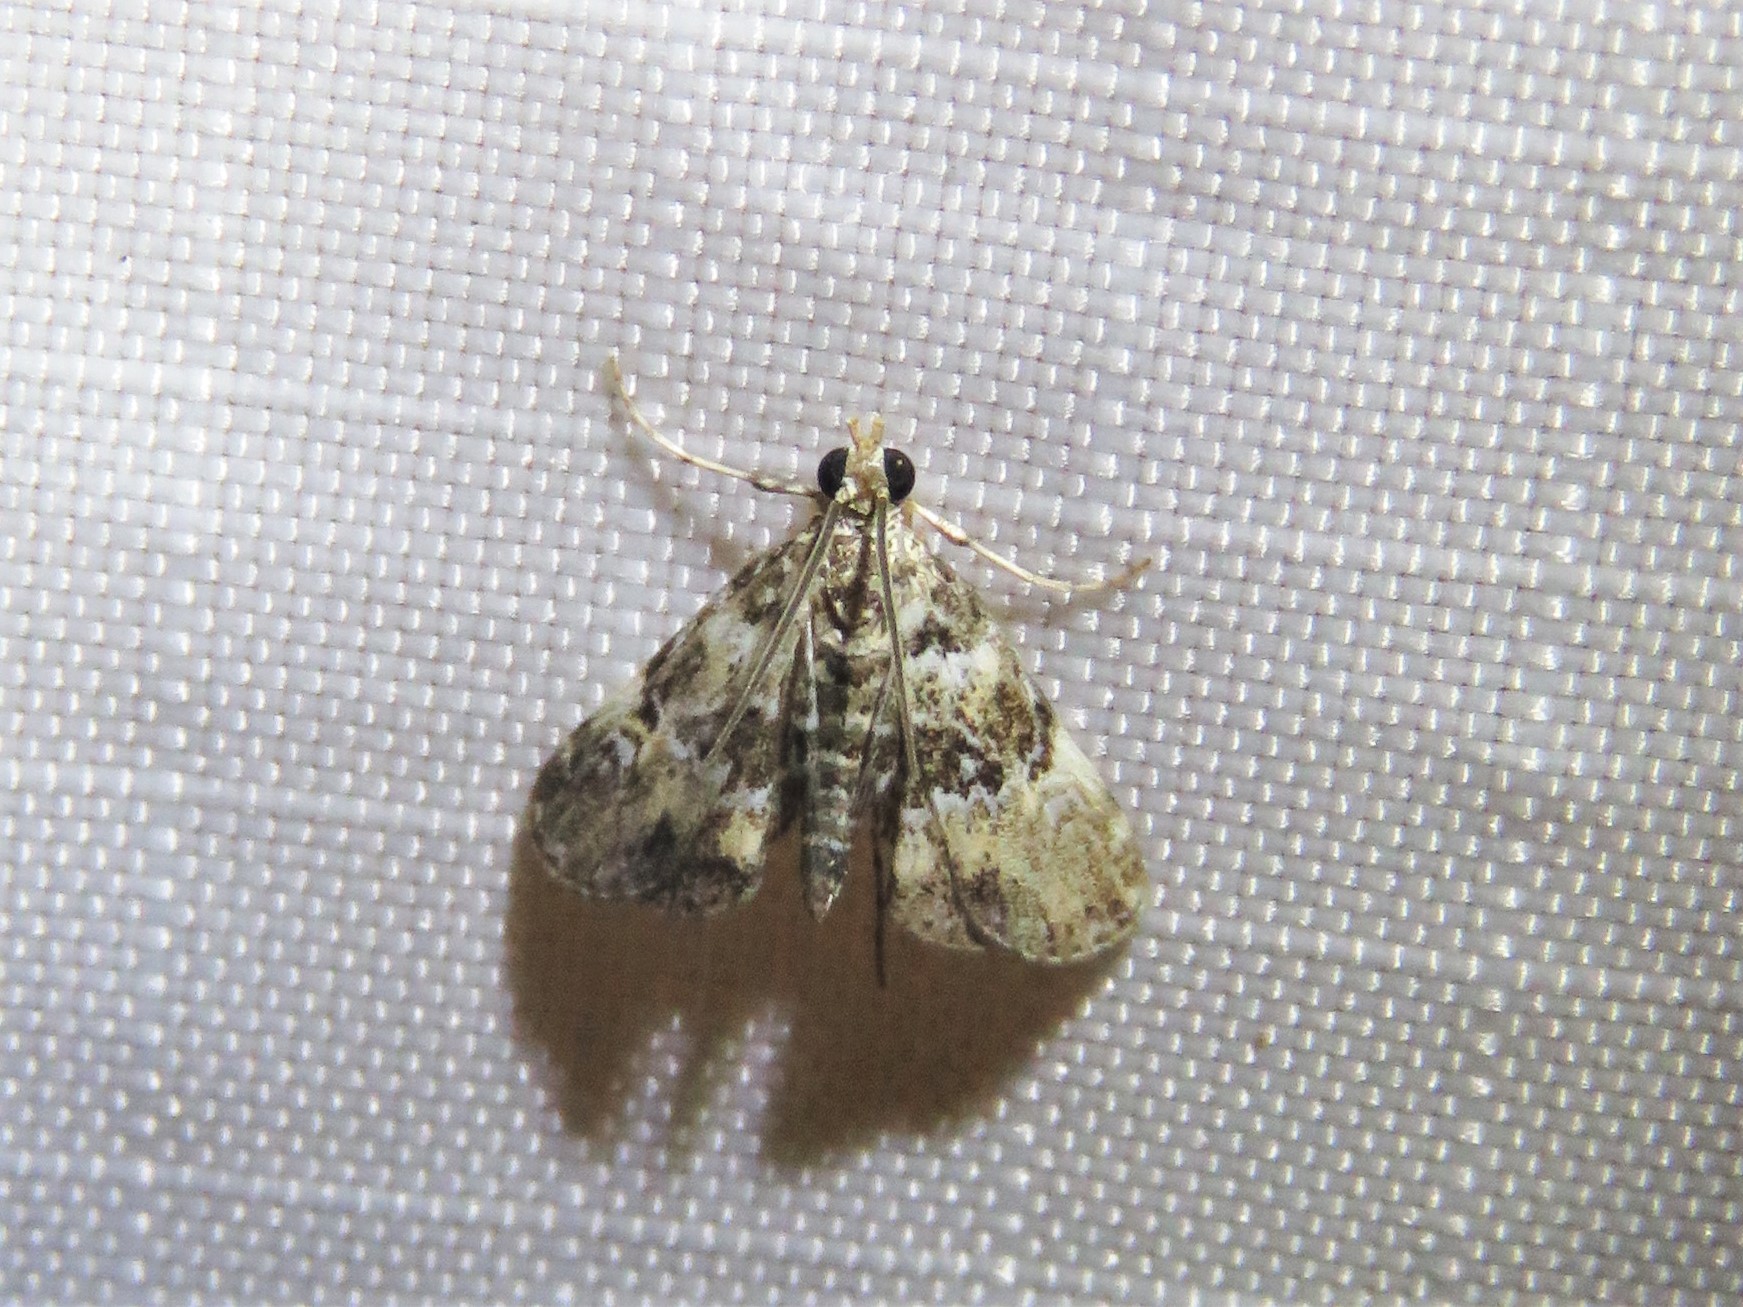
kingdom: Animalia
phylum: Arthropoda
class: Insecta
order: Lepidoptera
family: Crambidae
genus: Elophila
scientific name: Elophila obliteralis
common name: Waterlily leafcutter moth
